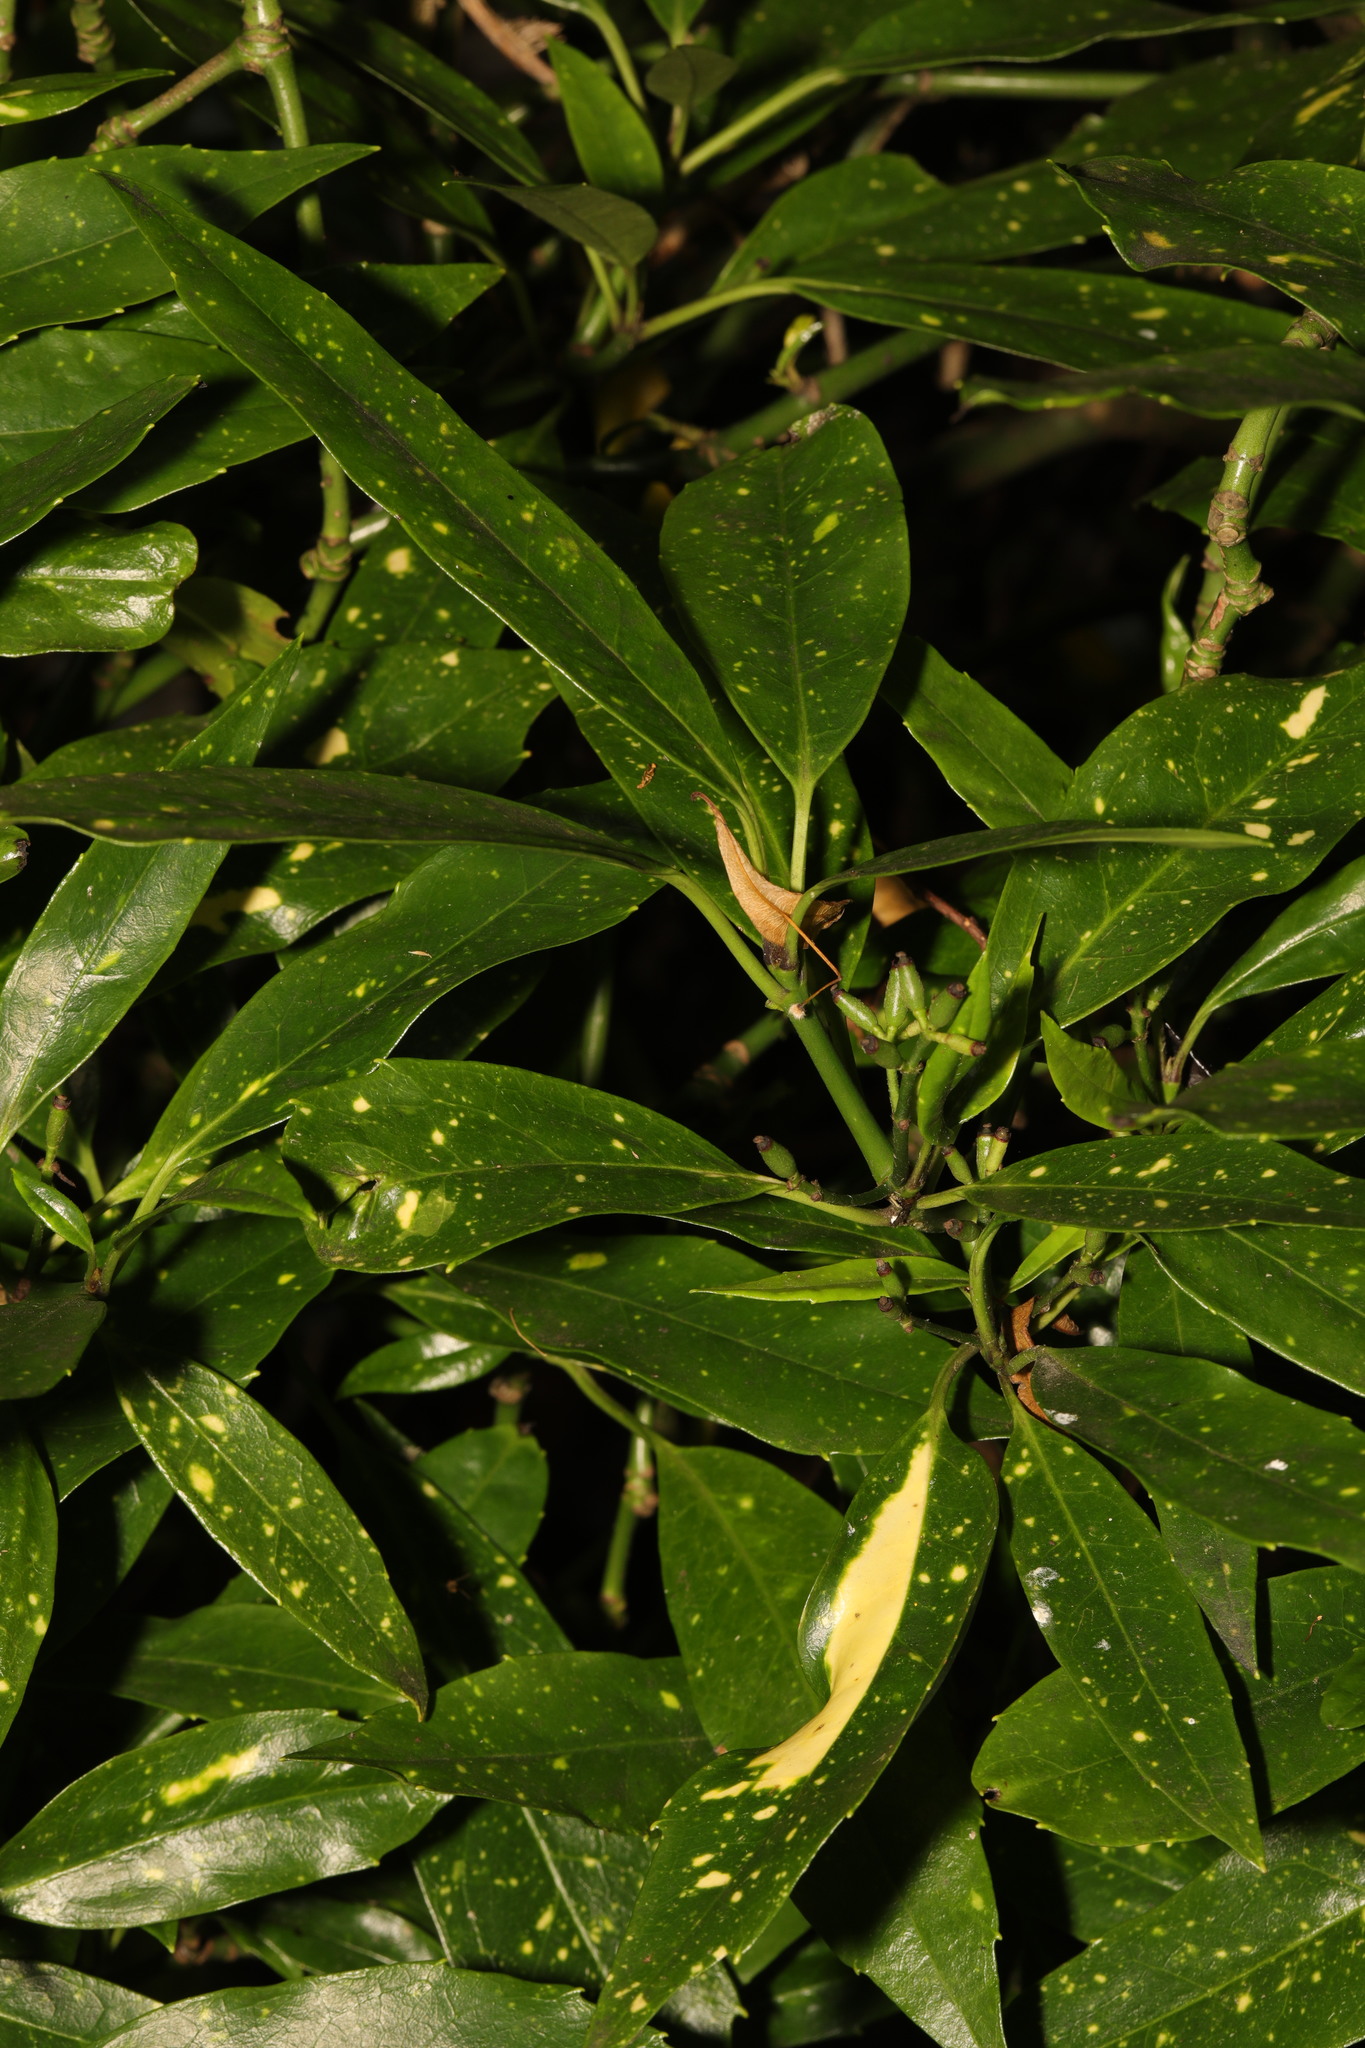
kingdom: Plantae
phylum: Tracheophyta
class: Magnoliopsida
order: Garryales
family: Garryaceae
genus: Aucuba
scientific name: Aucuba japonica
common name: Spotted-laurel
